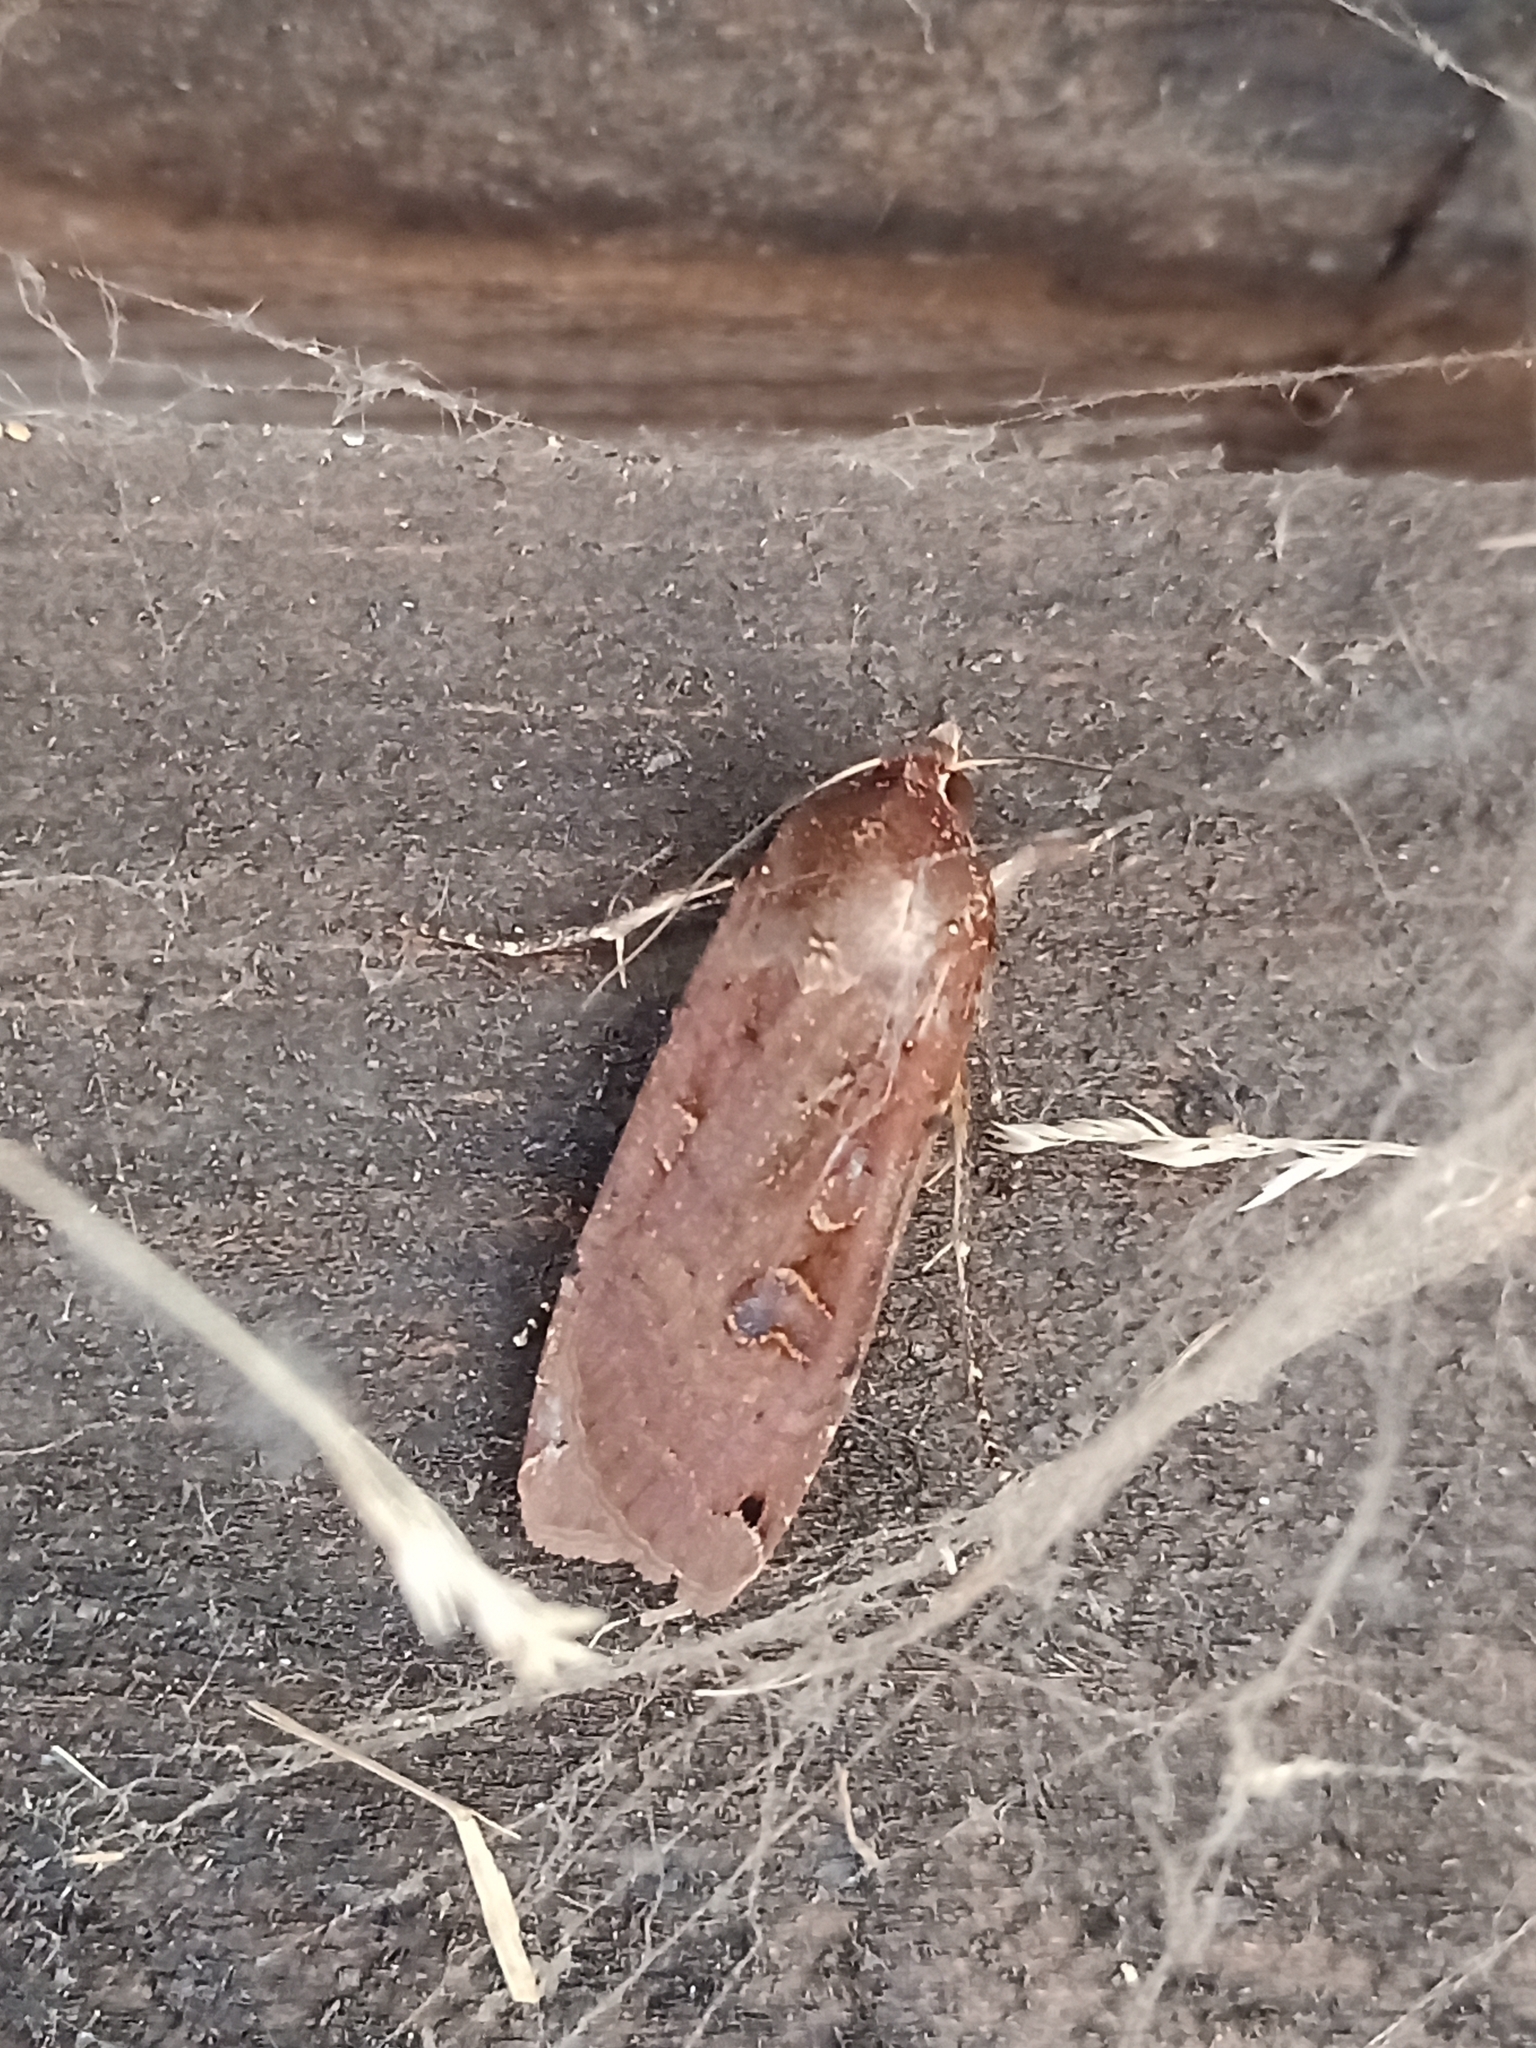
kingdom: Animalia
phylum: Arthropoda
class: Insecta
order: Lepidoptera
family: Noctuidae
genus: Noctua
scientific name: Noctua pronuba
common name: Large yellow underwing
